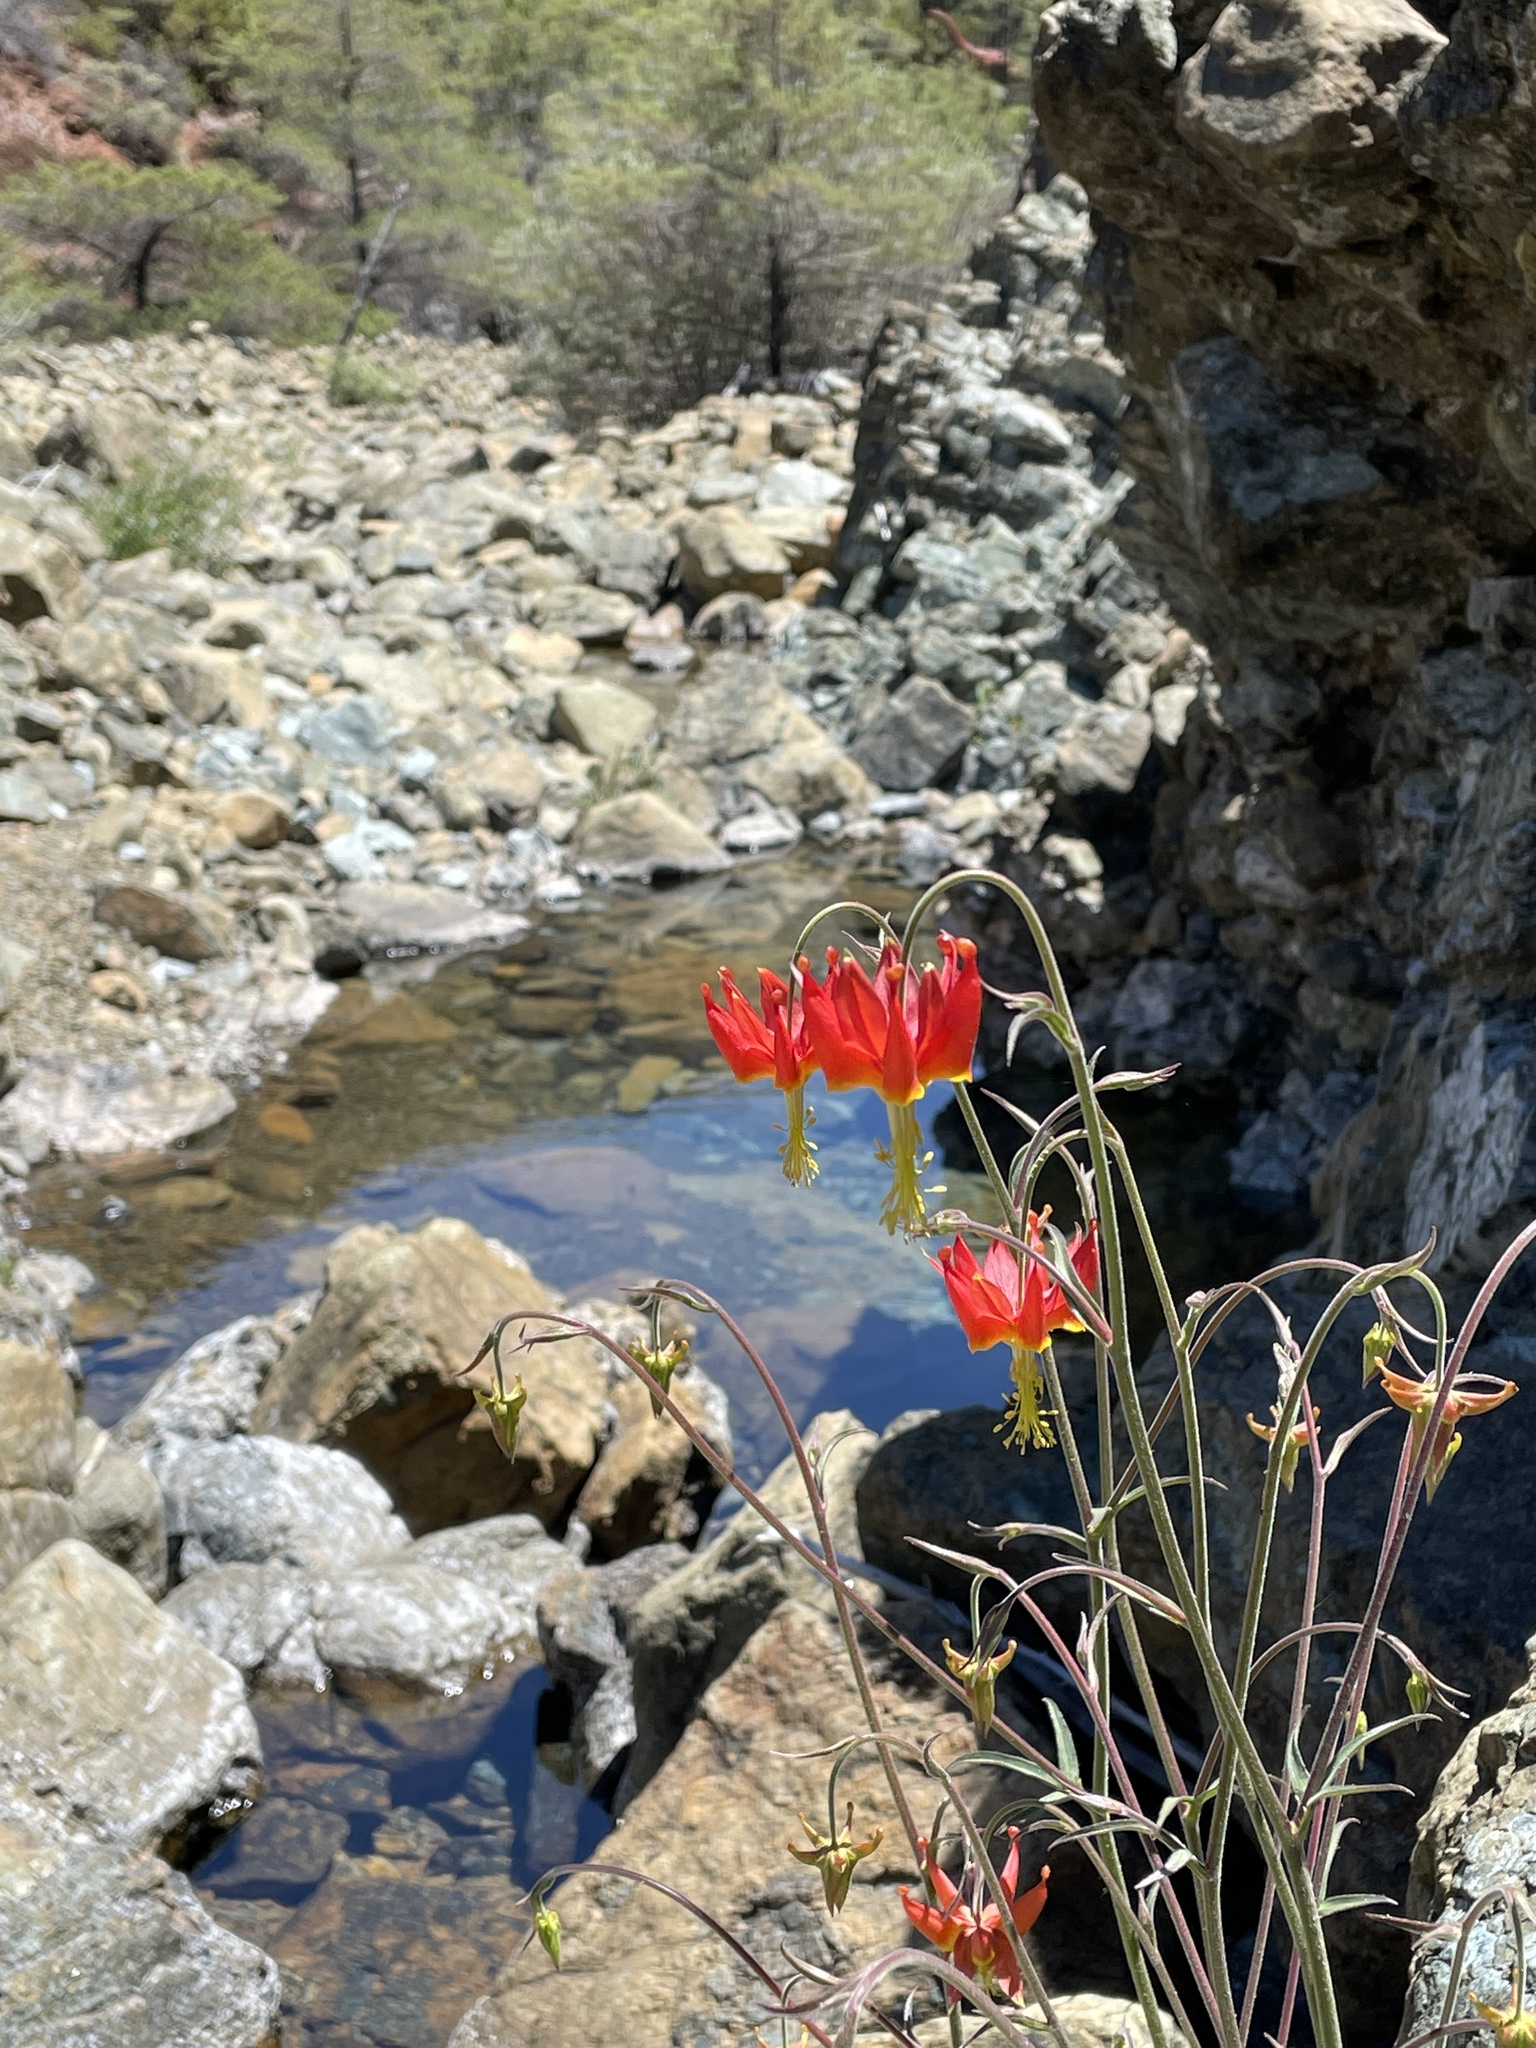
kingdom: Plantae
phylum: Tracheophyta
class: Magnoliopsida
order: Ranunculales
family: Ranunculaceae
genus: Aquilegia
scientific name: Aquilegia eximia
